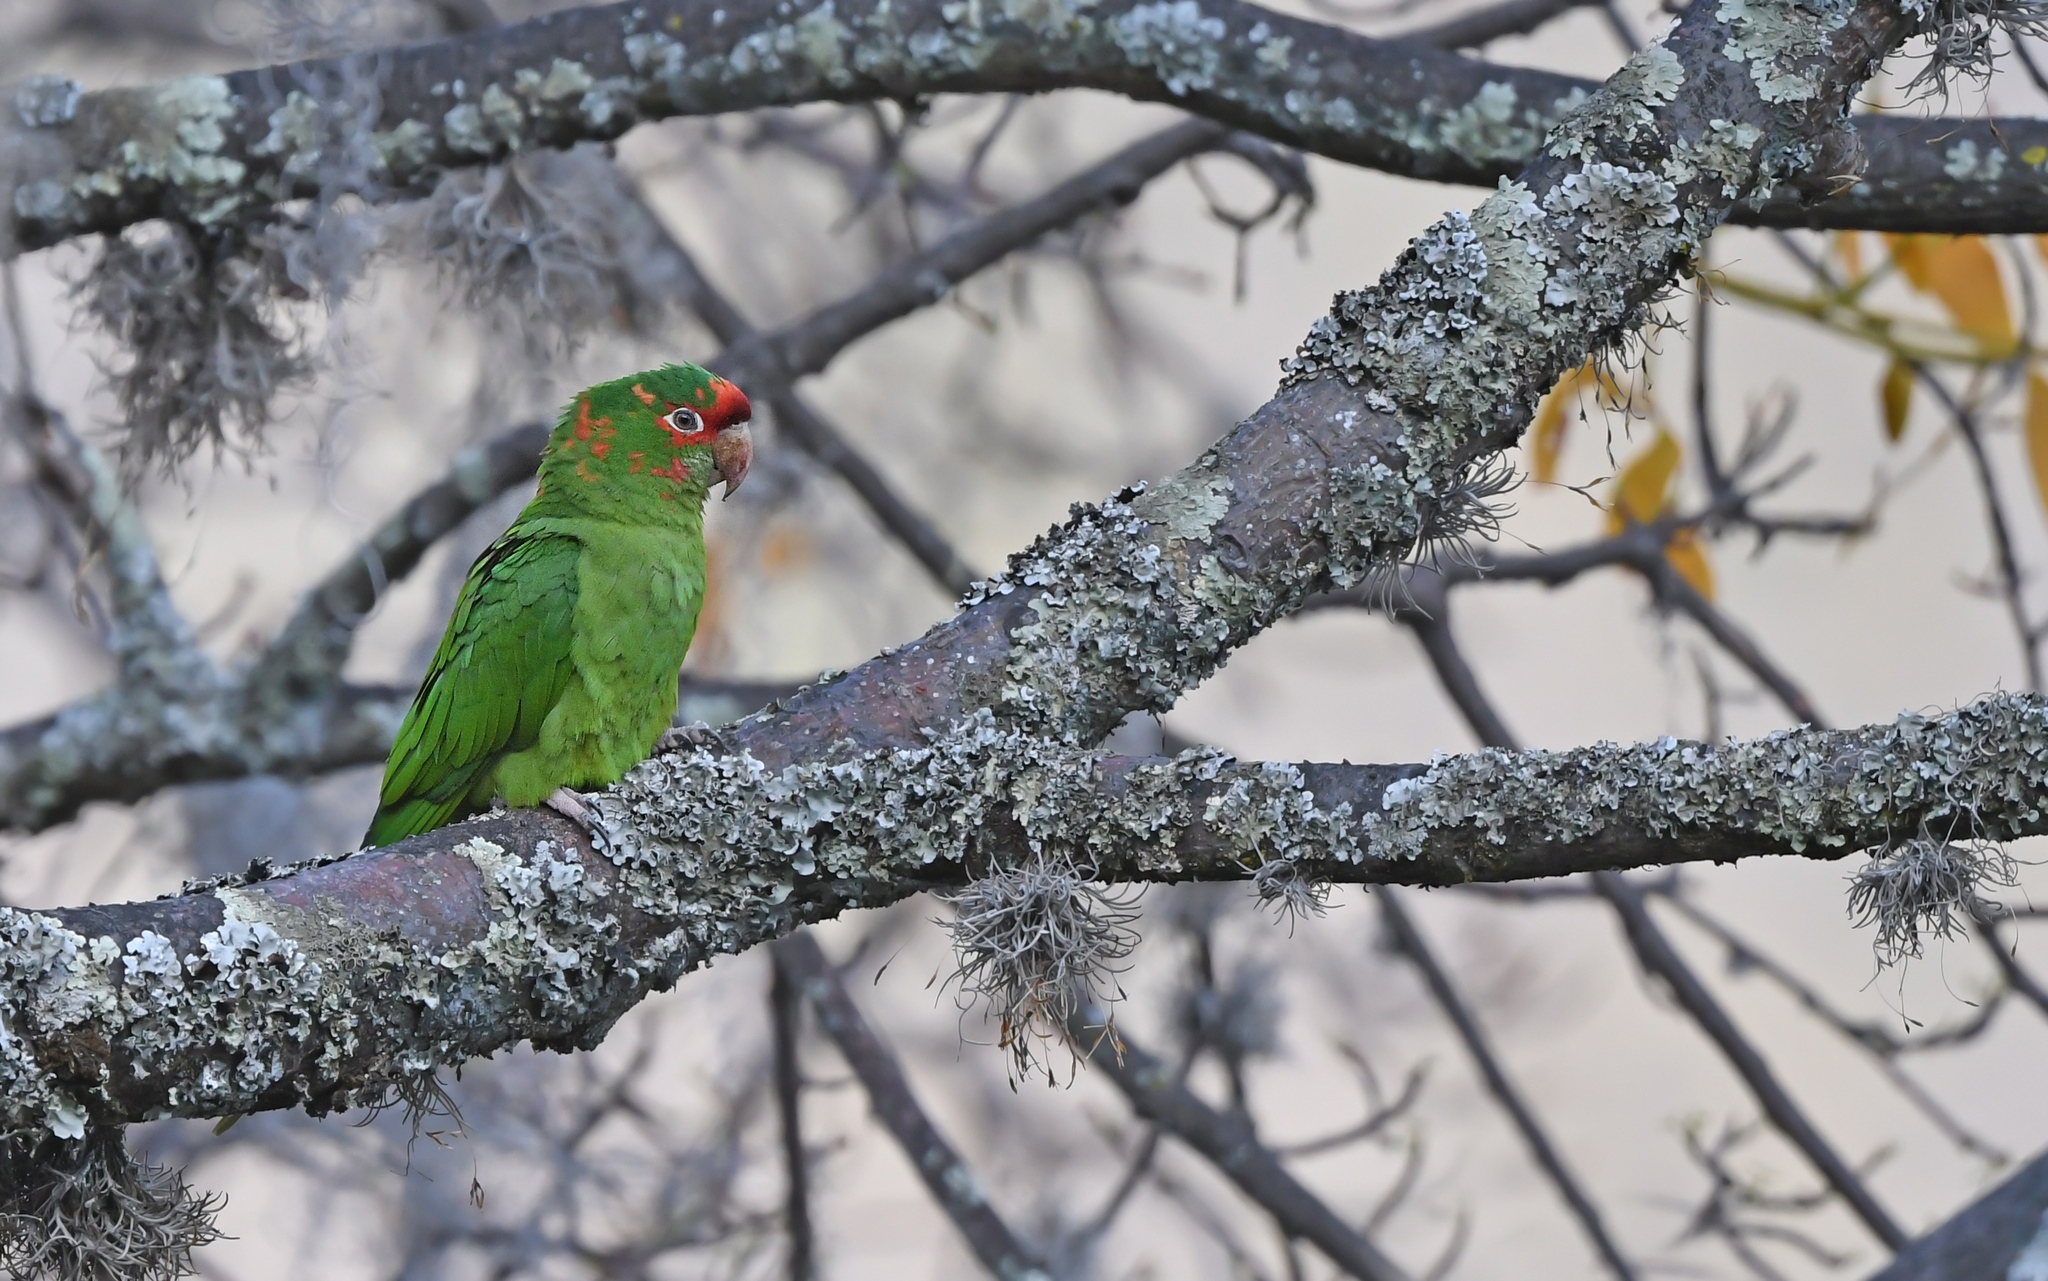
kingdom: Animalia
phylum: Chordata
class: Aves
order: Psittaciformes
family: Psittacidae
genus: Aratinga
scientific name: Aratinga mitrata
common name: Mitred parakeet
